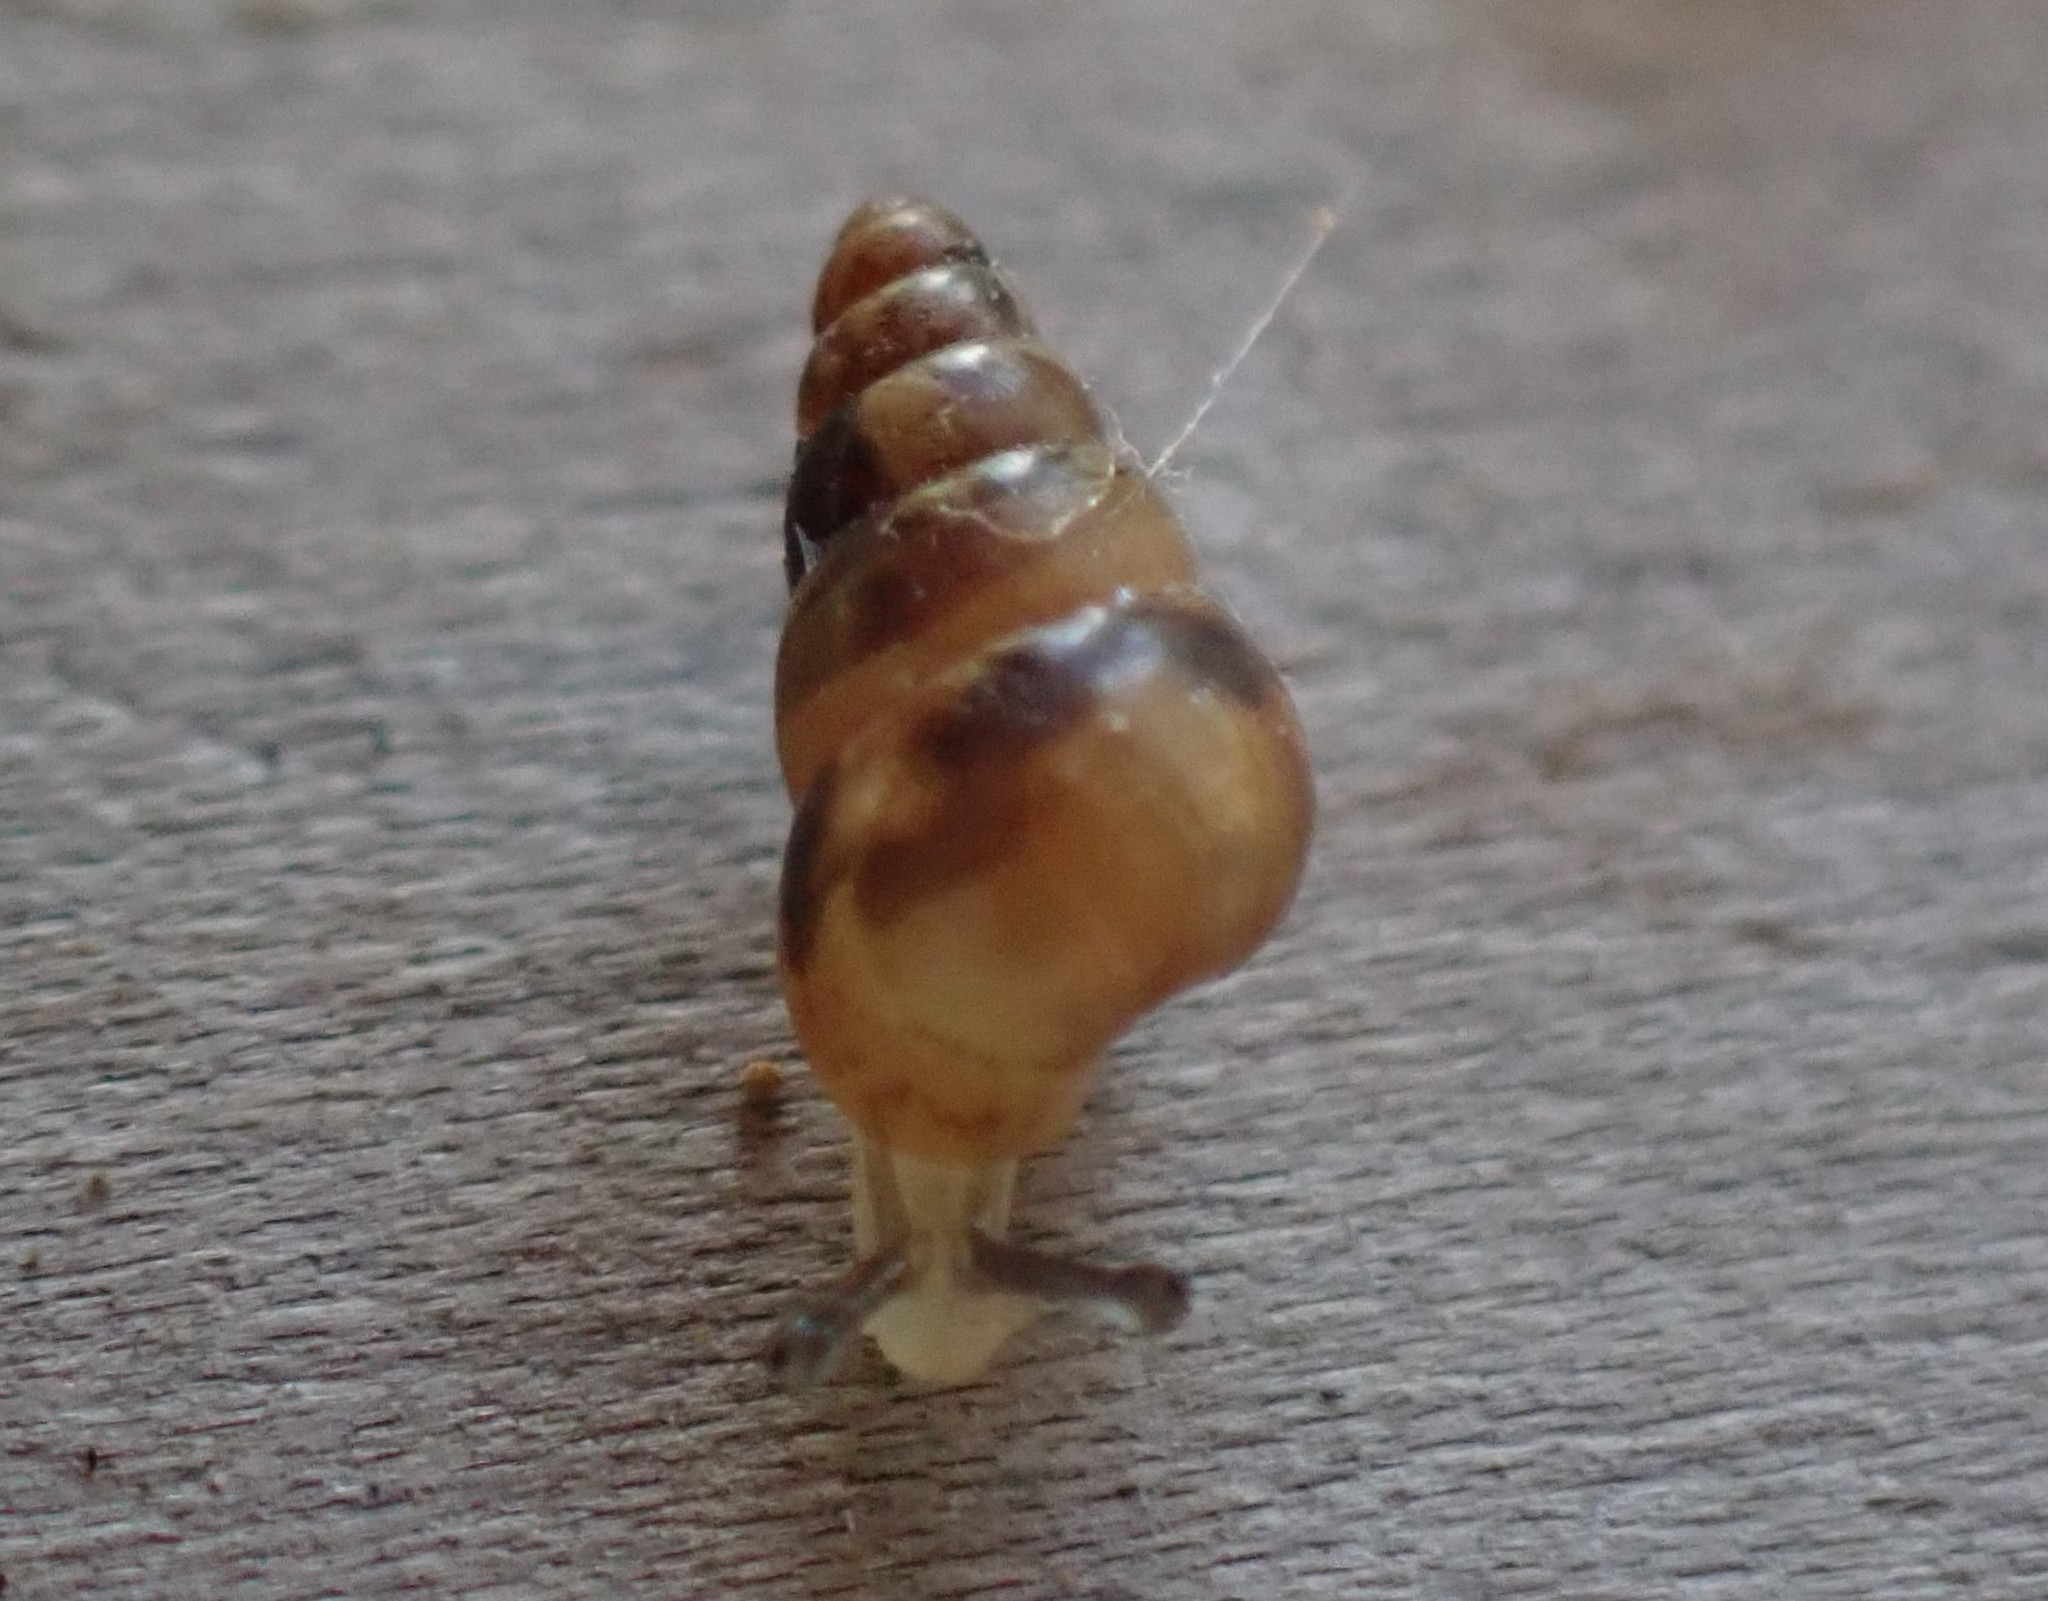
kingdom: Animalia
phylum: Mollusca
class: Gastropoda
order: Stylommatophora
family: Achatinellidae
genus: Tornatellides
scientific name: Tornatellides subperforatus
